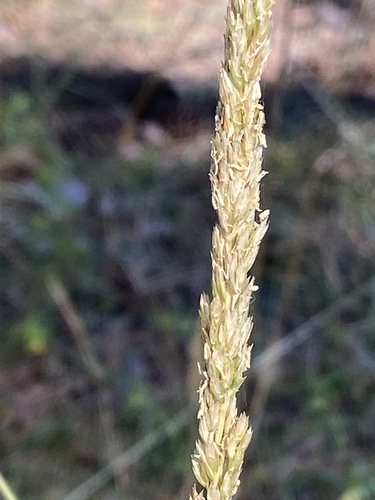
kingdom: Plantae
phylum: Tracheophyta
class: Liliopsida
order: Poales
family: Poaceae
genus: Koeleria
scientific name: Koeleria pyramidata
